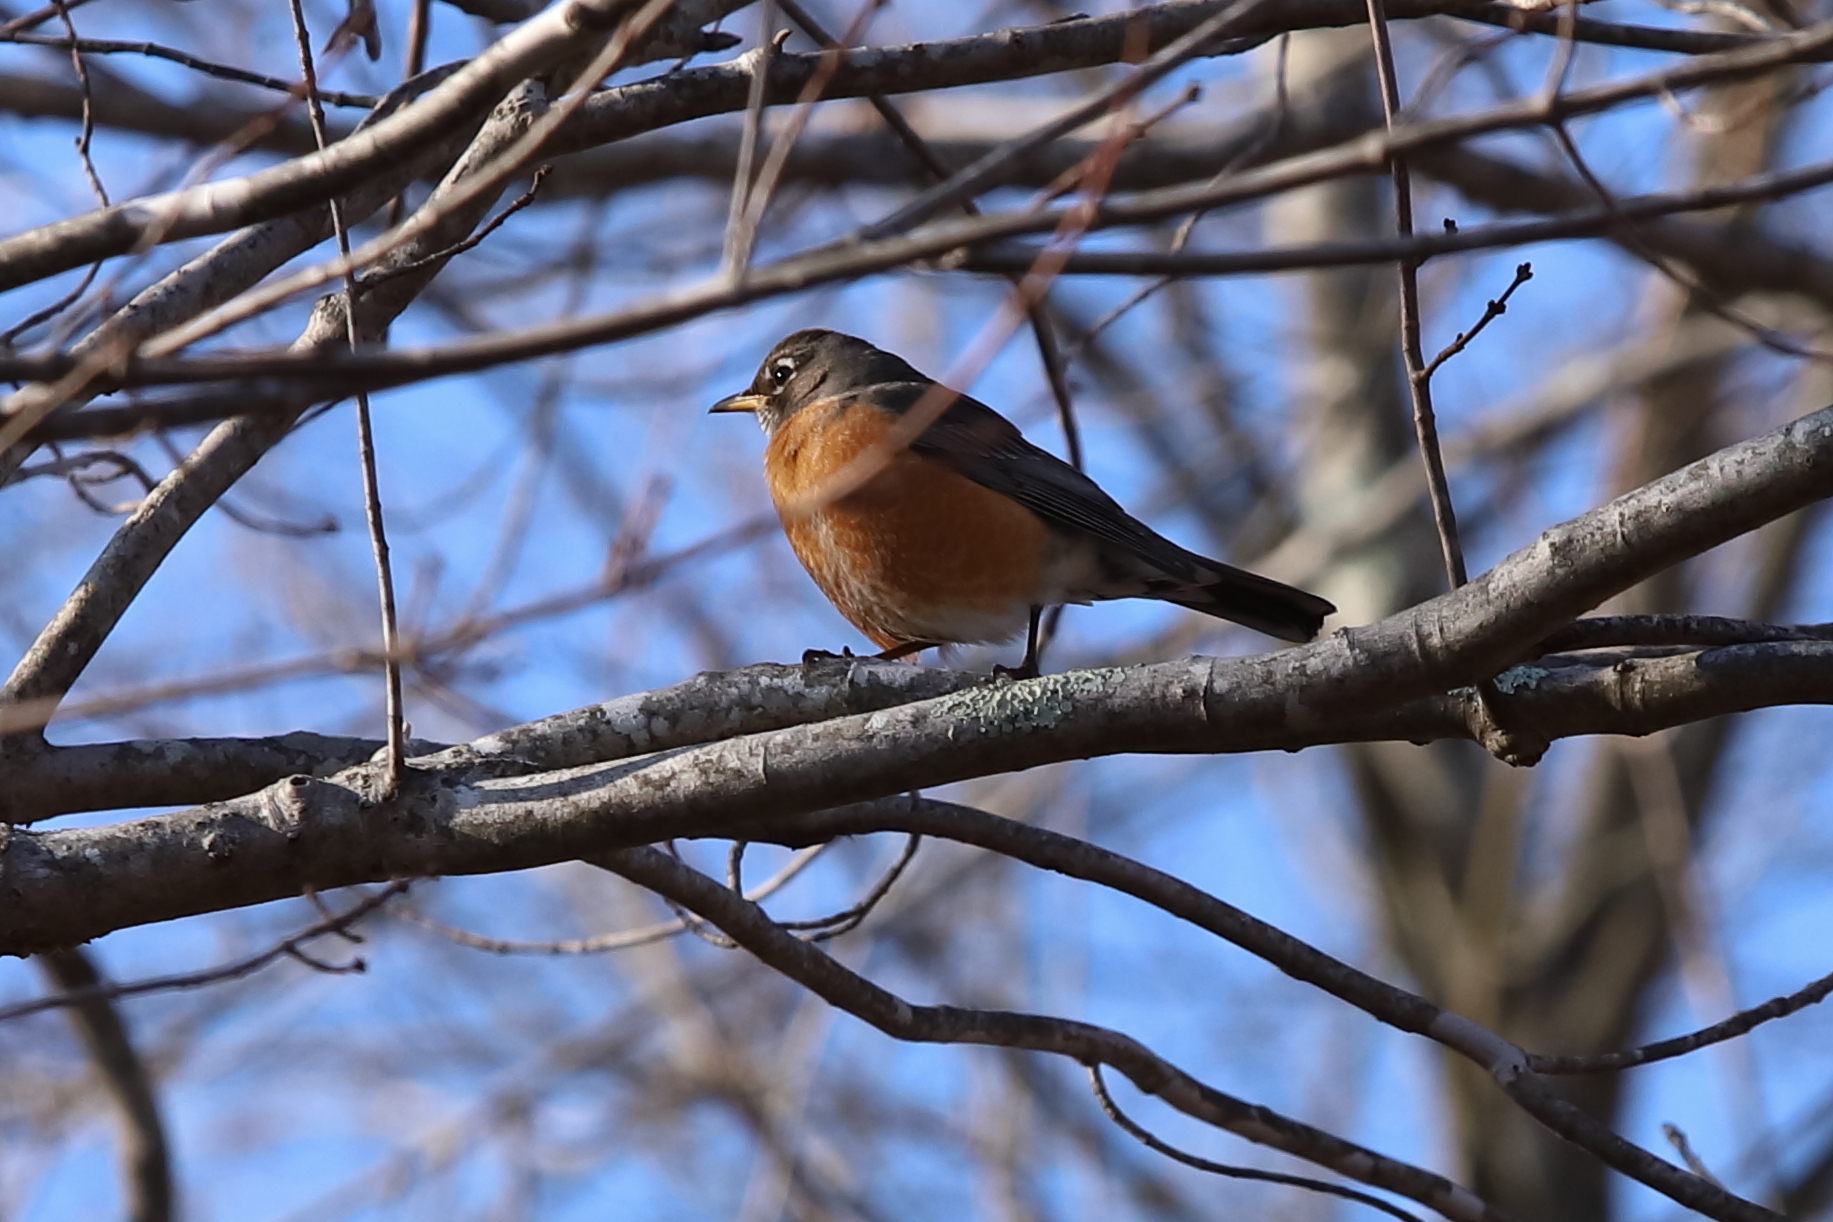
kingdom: Animalia
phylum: Chordata
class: Aves
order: Passeriformes
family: Turdidae
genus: Turdus
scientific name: Turdus migratorius
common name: American robin
